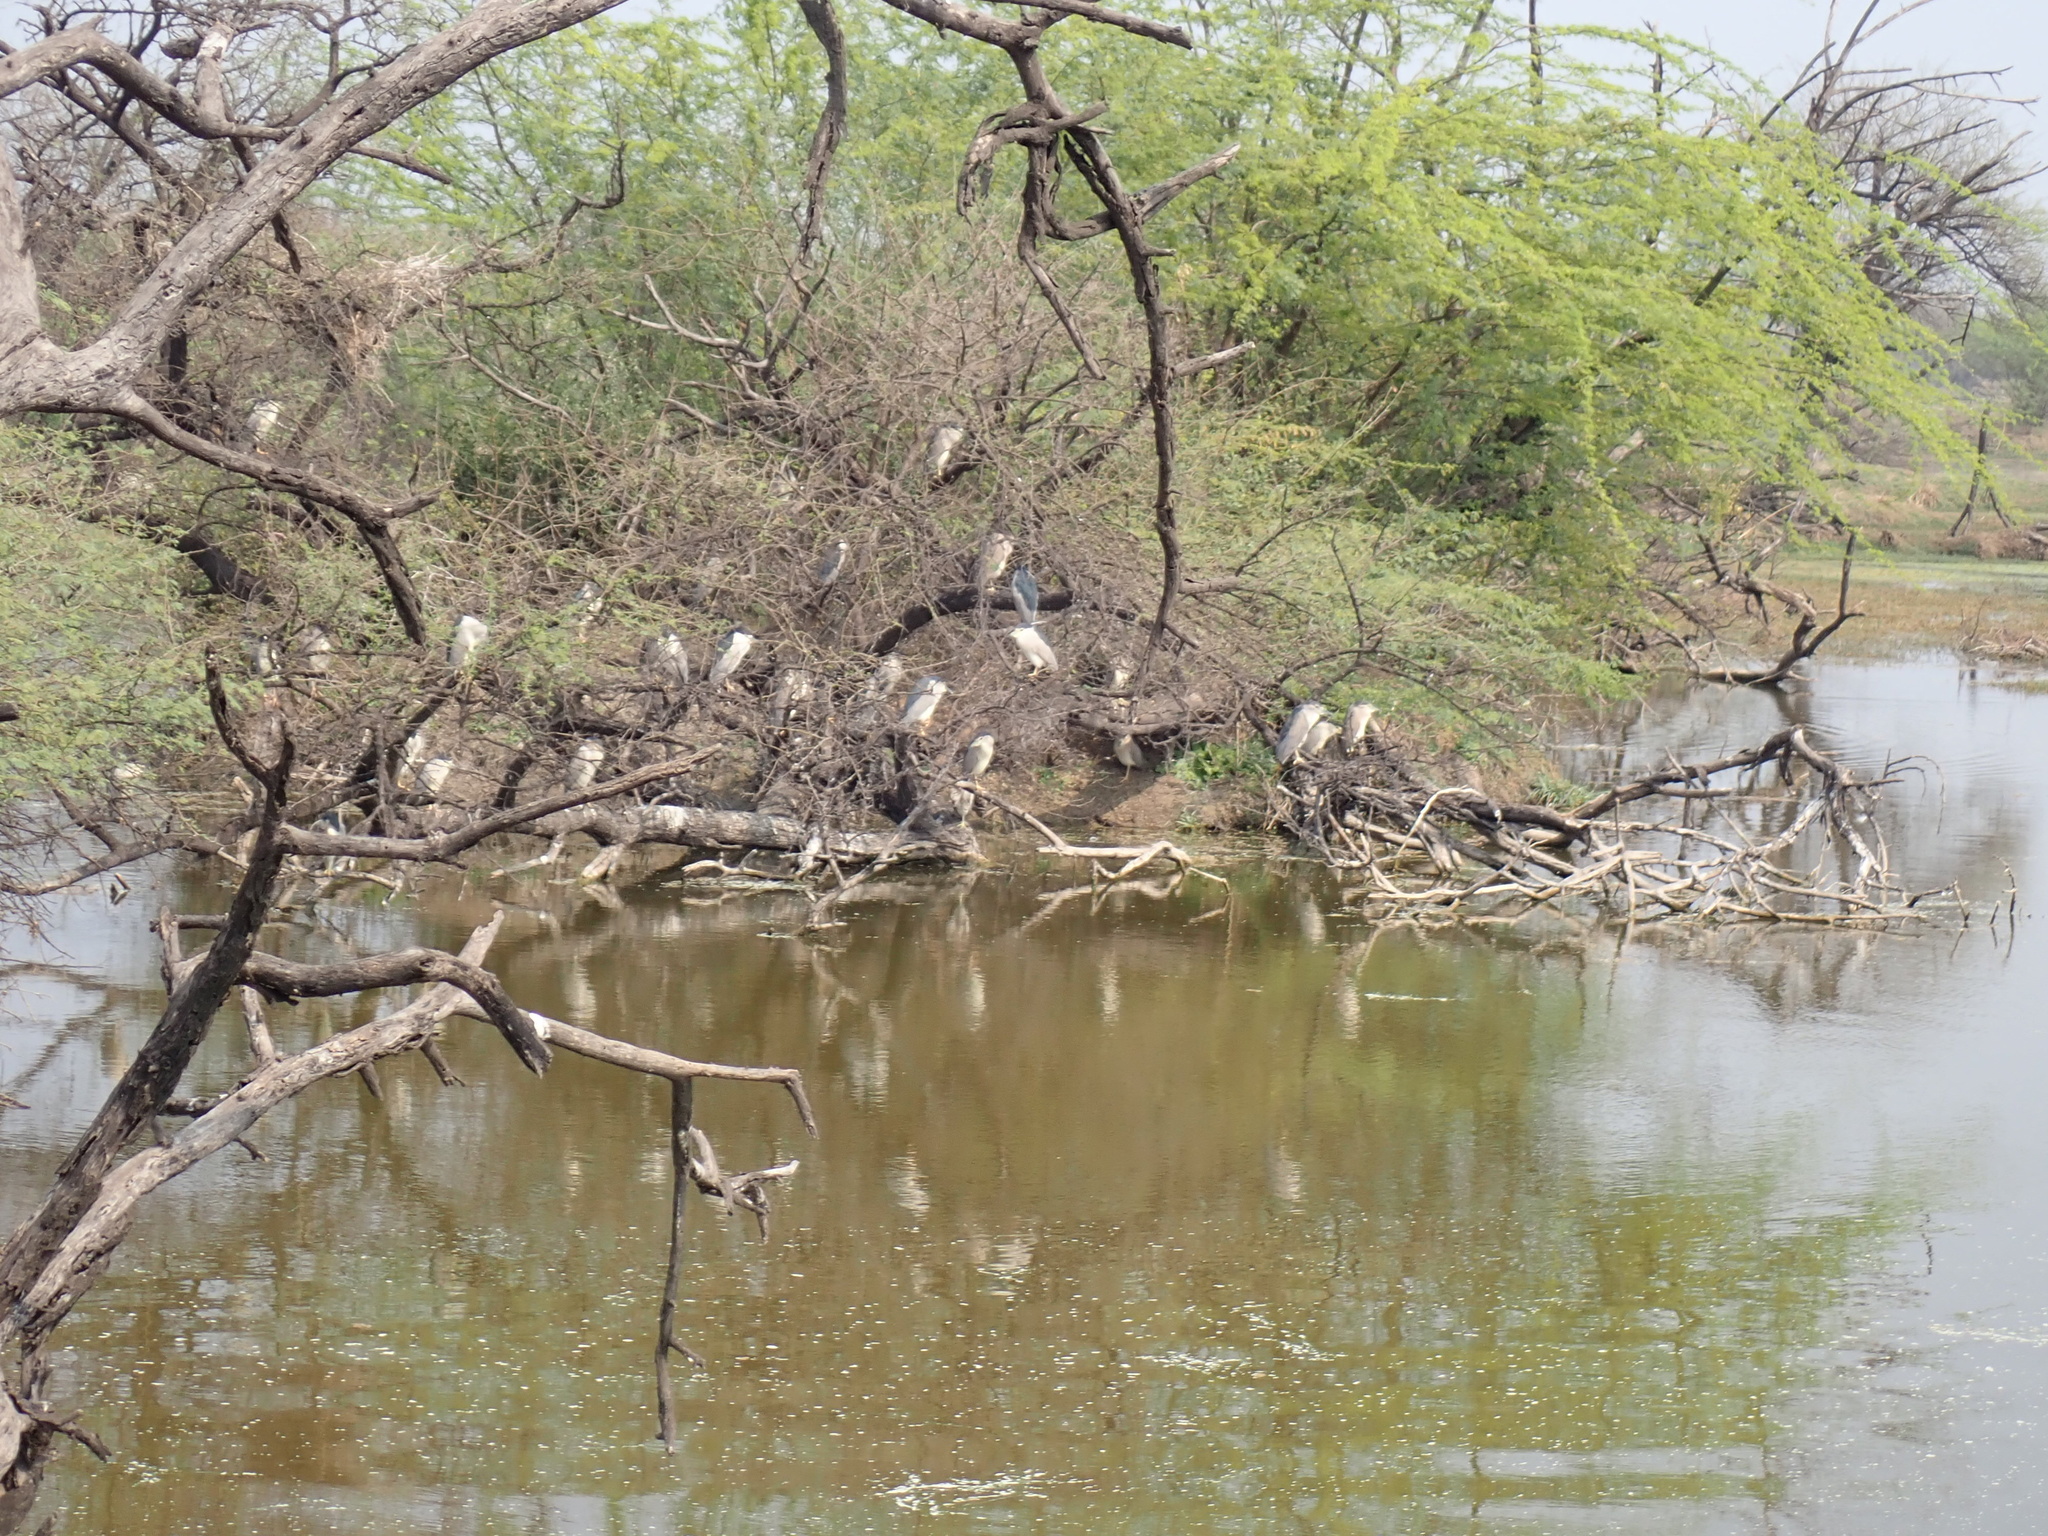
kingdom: Animalia
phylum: Chordata
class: Aves
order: Pelecaniformes
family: Ardeidae
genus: Nycticorax
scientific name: Nycticorax nycticorax
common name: Black-crowned night heron
